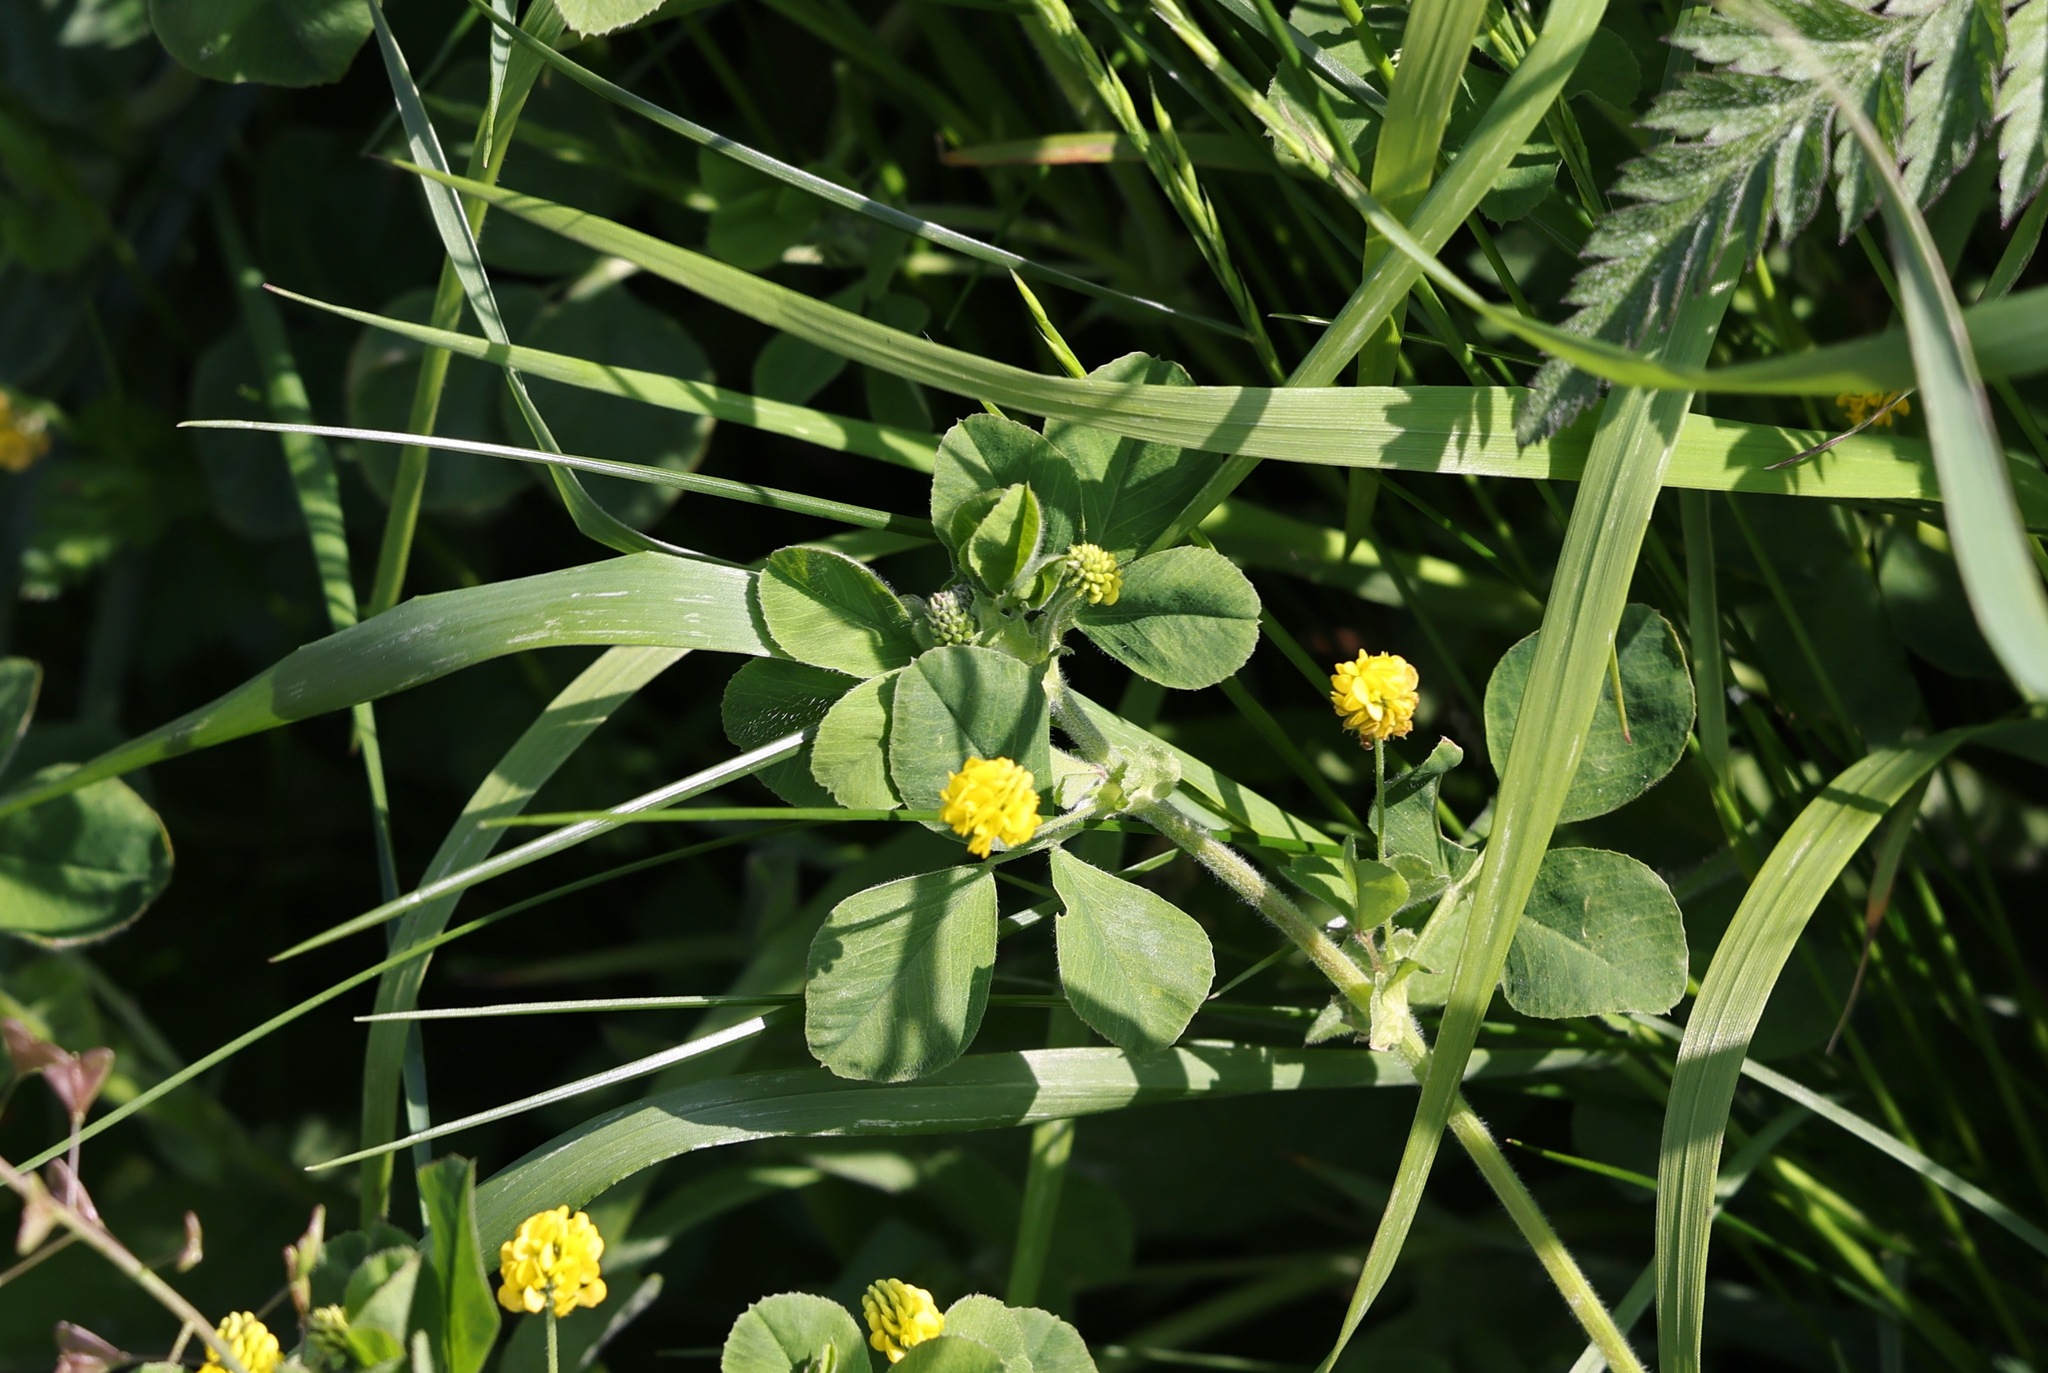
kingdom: Plantae
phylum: Tracheophyta
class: Magnoliopsida
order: Fabales
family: Fabaceae
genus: Medicago
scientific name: Medicago lupulina
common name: Black medick
